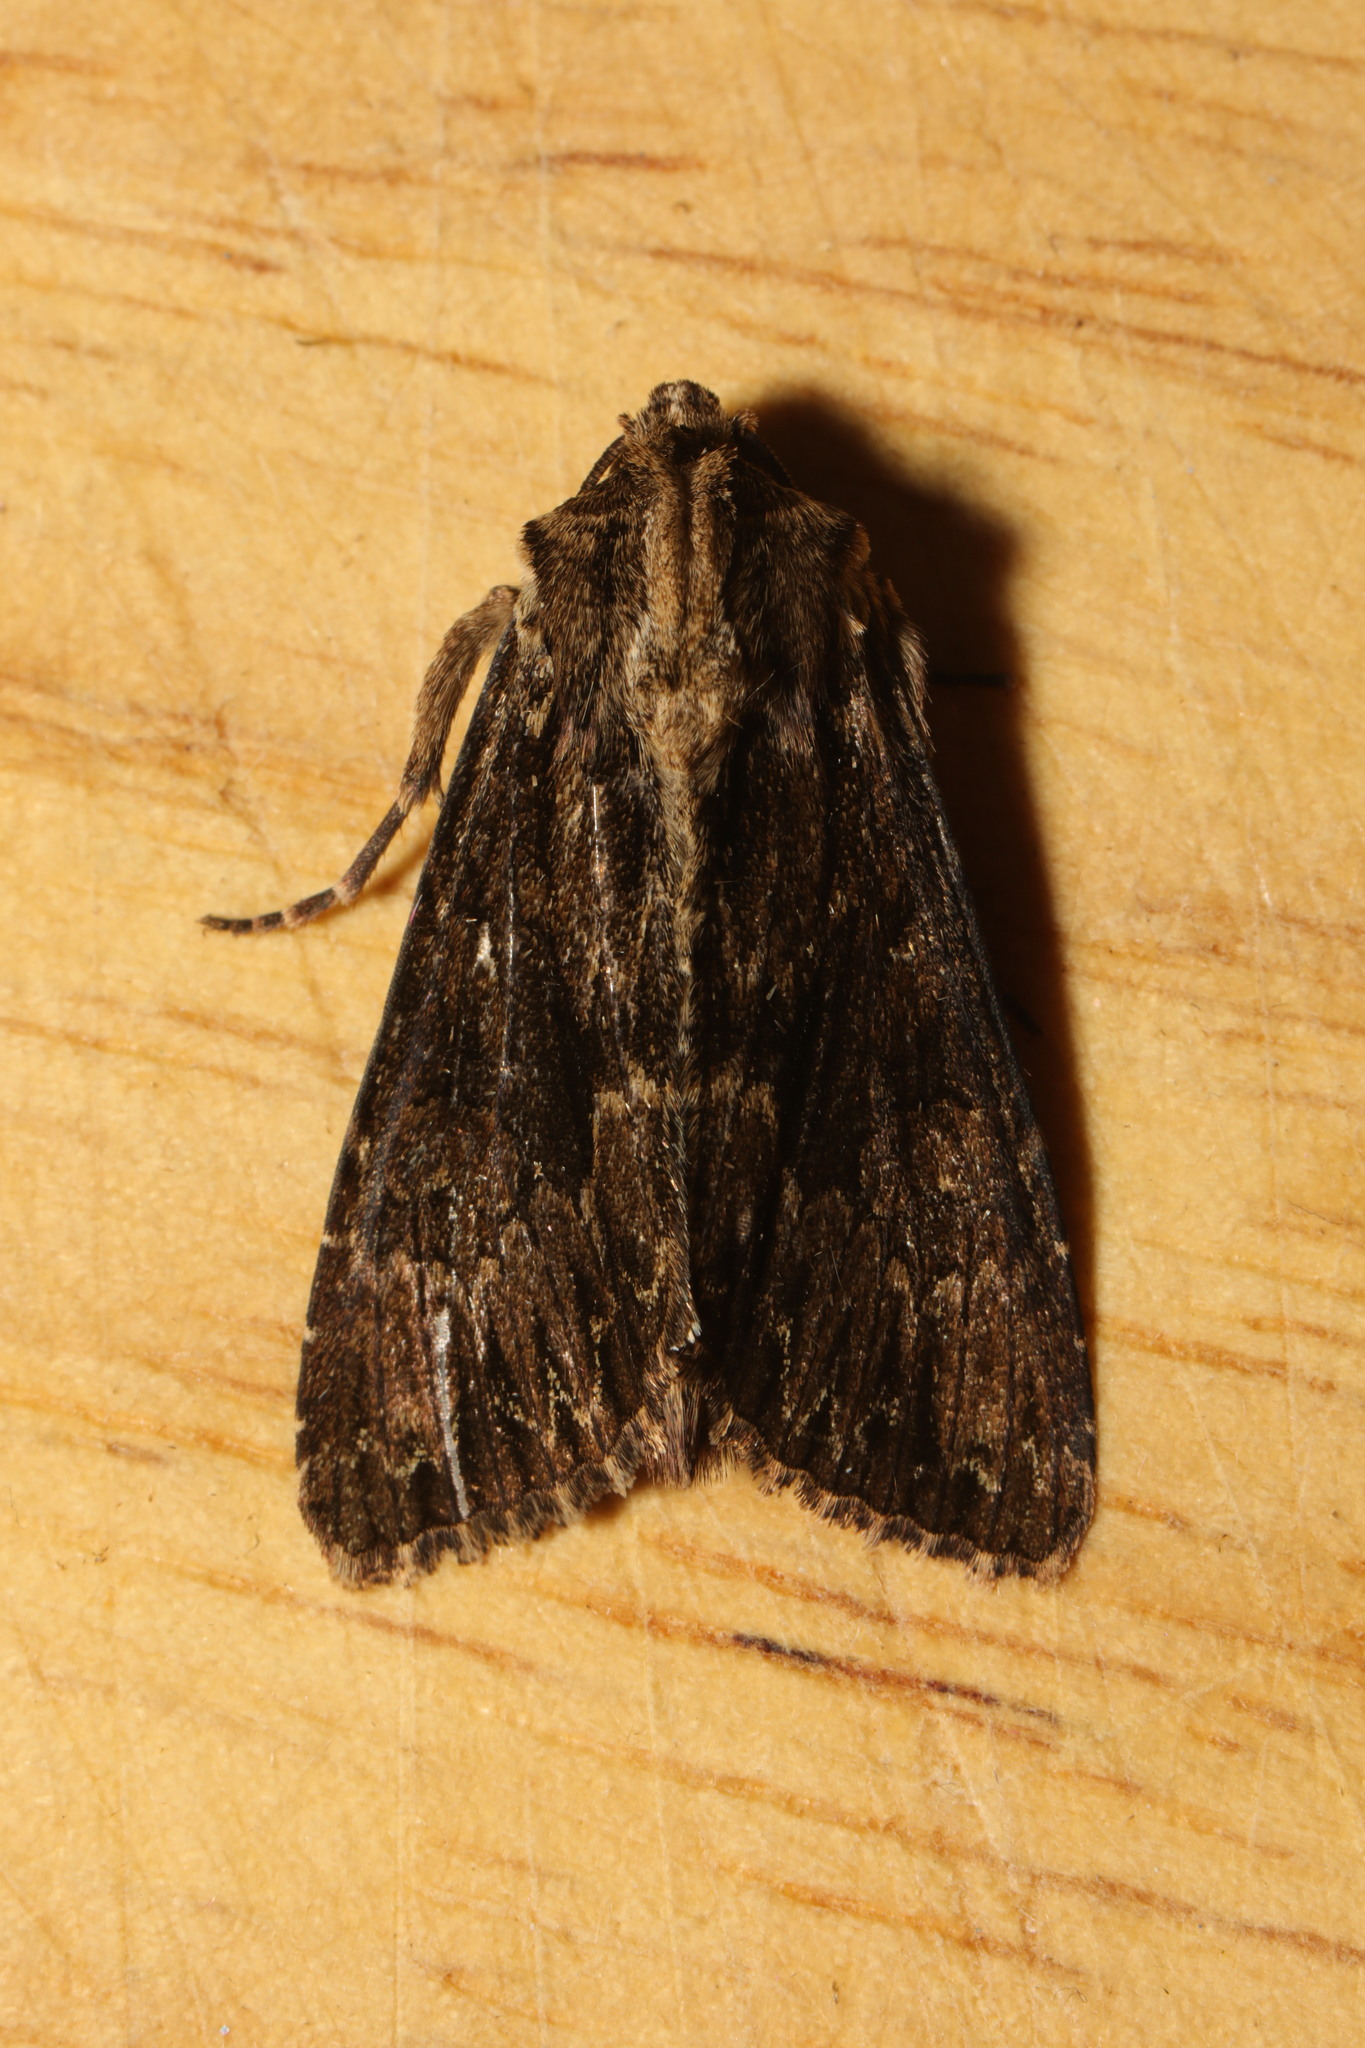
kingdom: Animalia
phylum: Arthropoda
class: Insecta
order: Lepidoptera
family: Noctuidae
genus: Apamea
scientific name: Apamea monoglypha
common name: Dark arches
